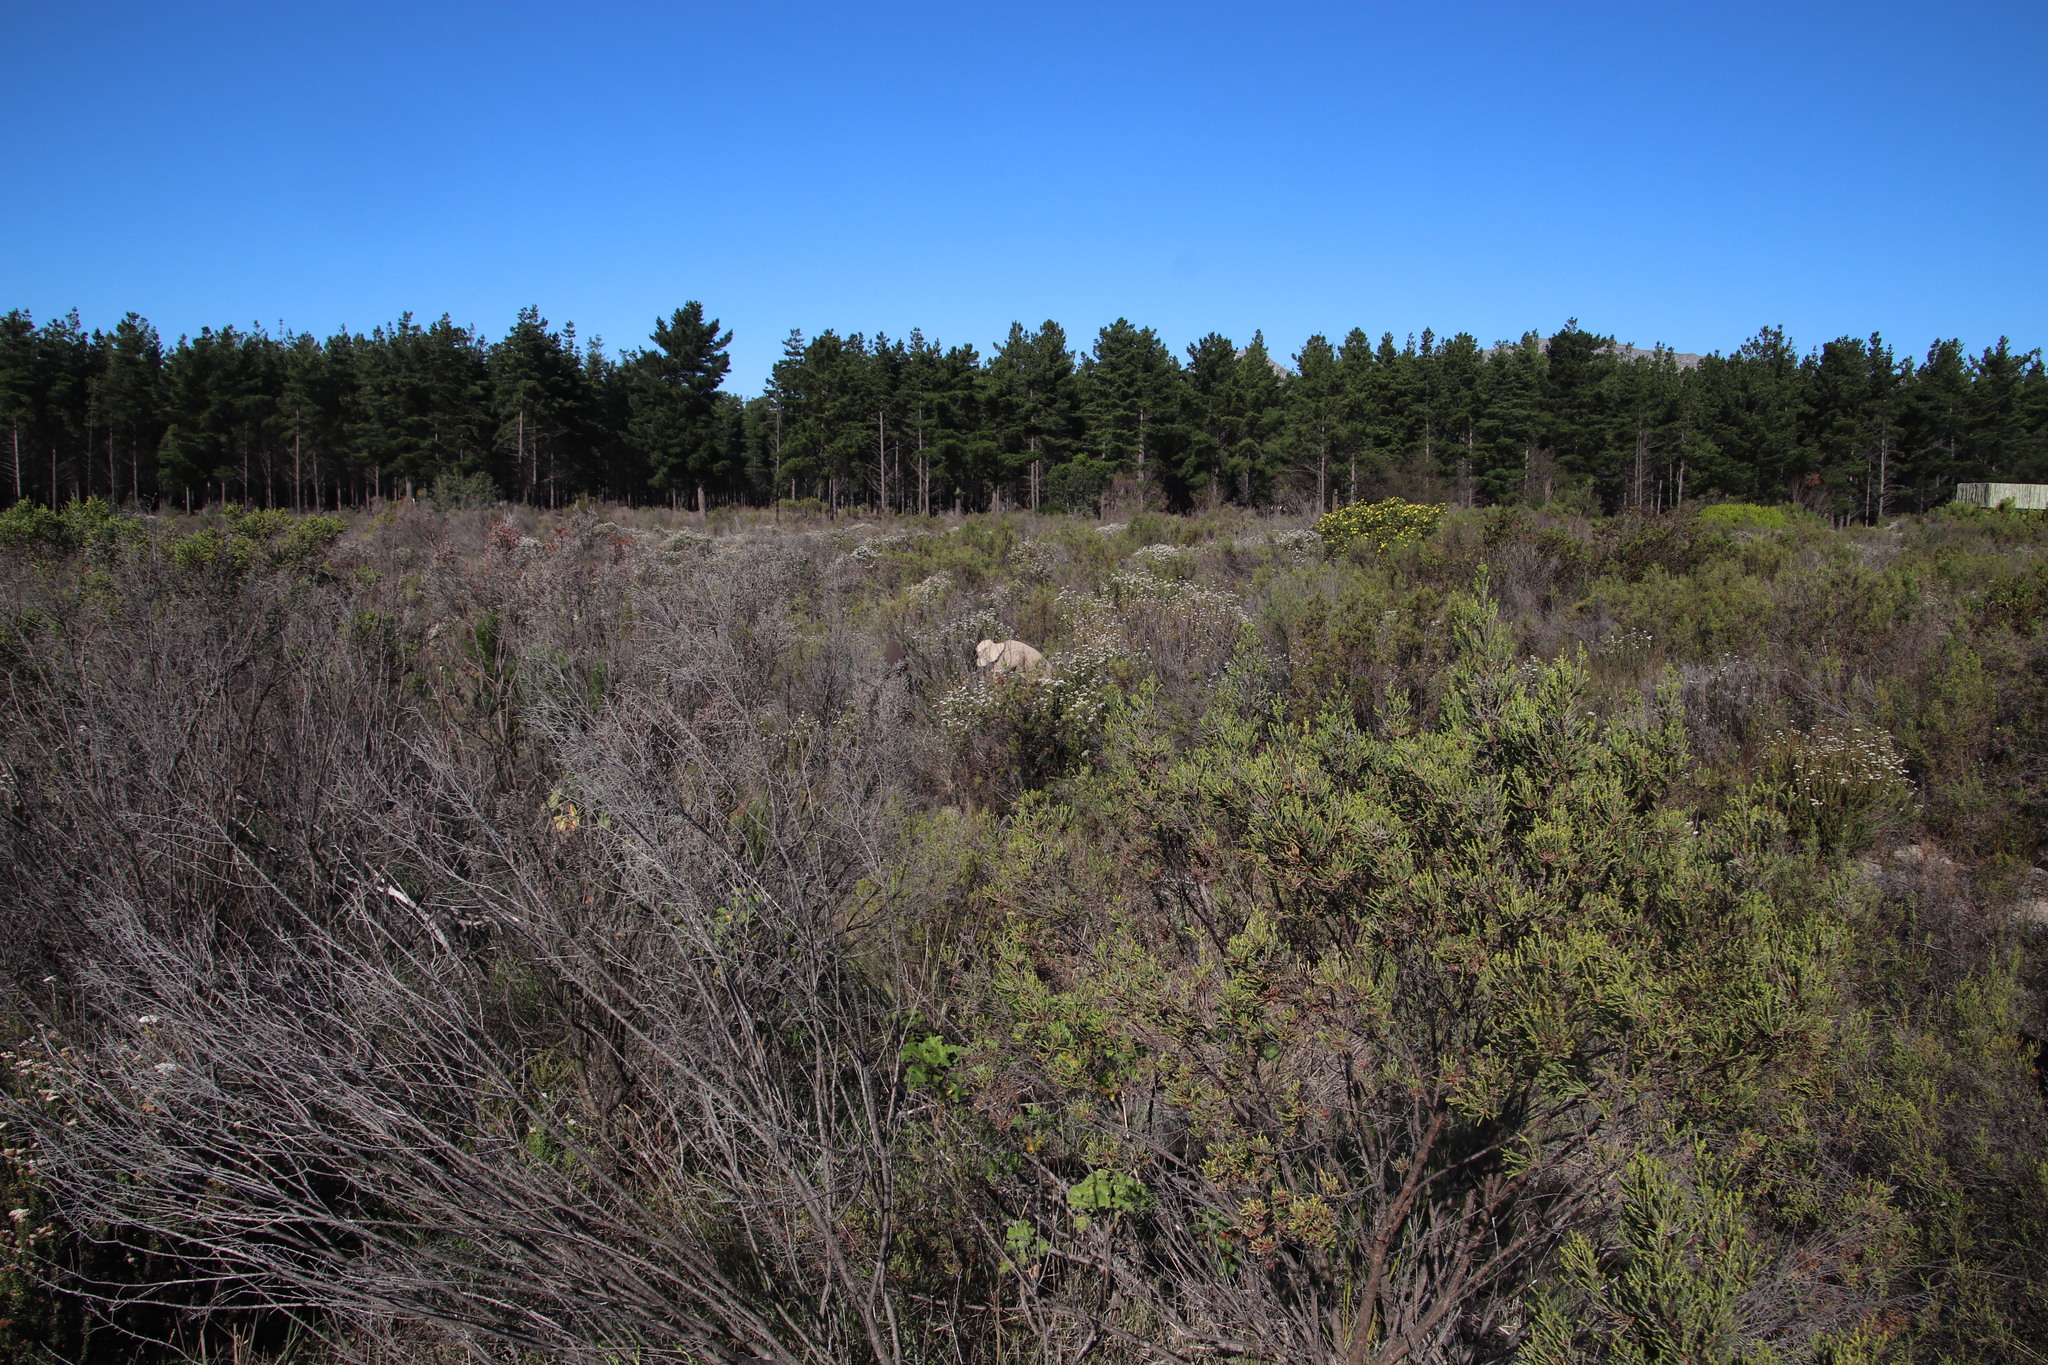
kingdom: Plantae
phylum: Tracheophyta
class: Magnoliopsida
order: Malvales
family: Thymelaeaceae
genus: Passerina
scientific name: Passerina corymbosa
